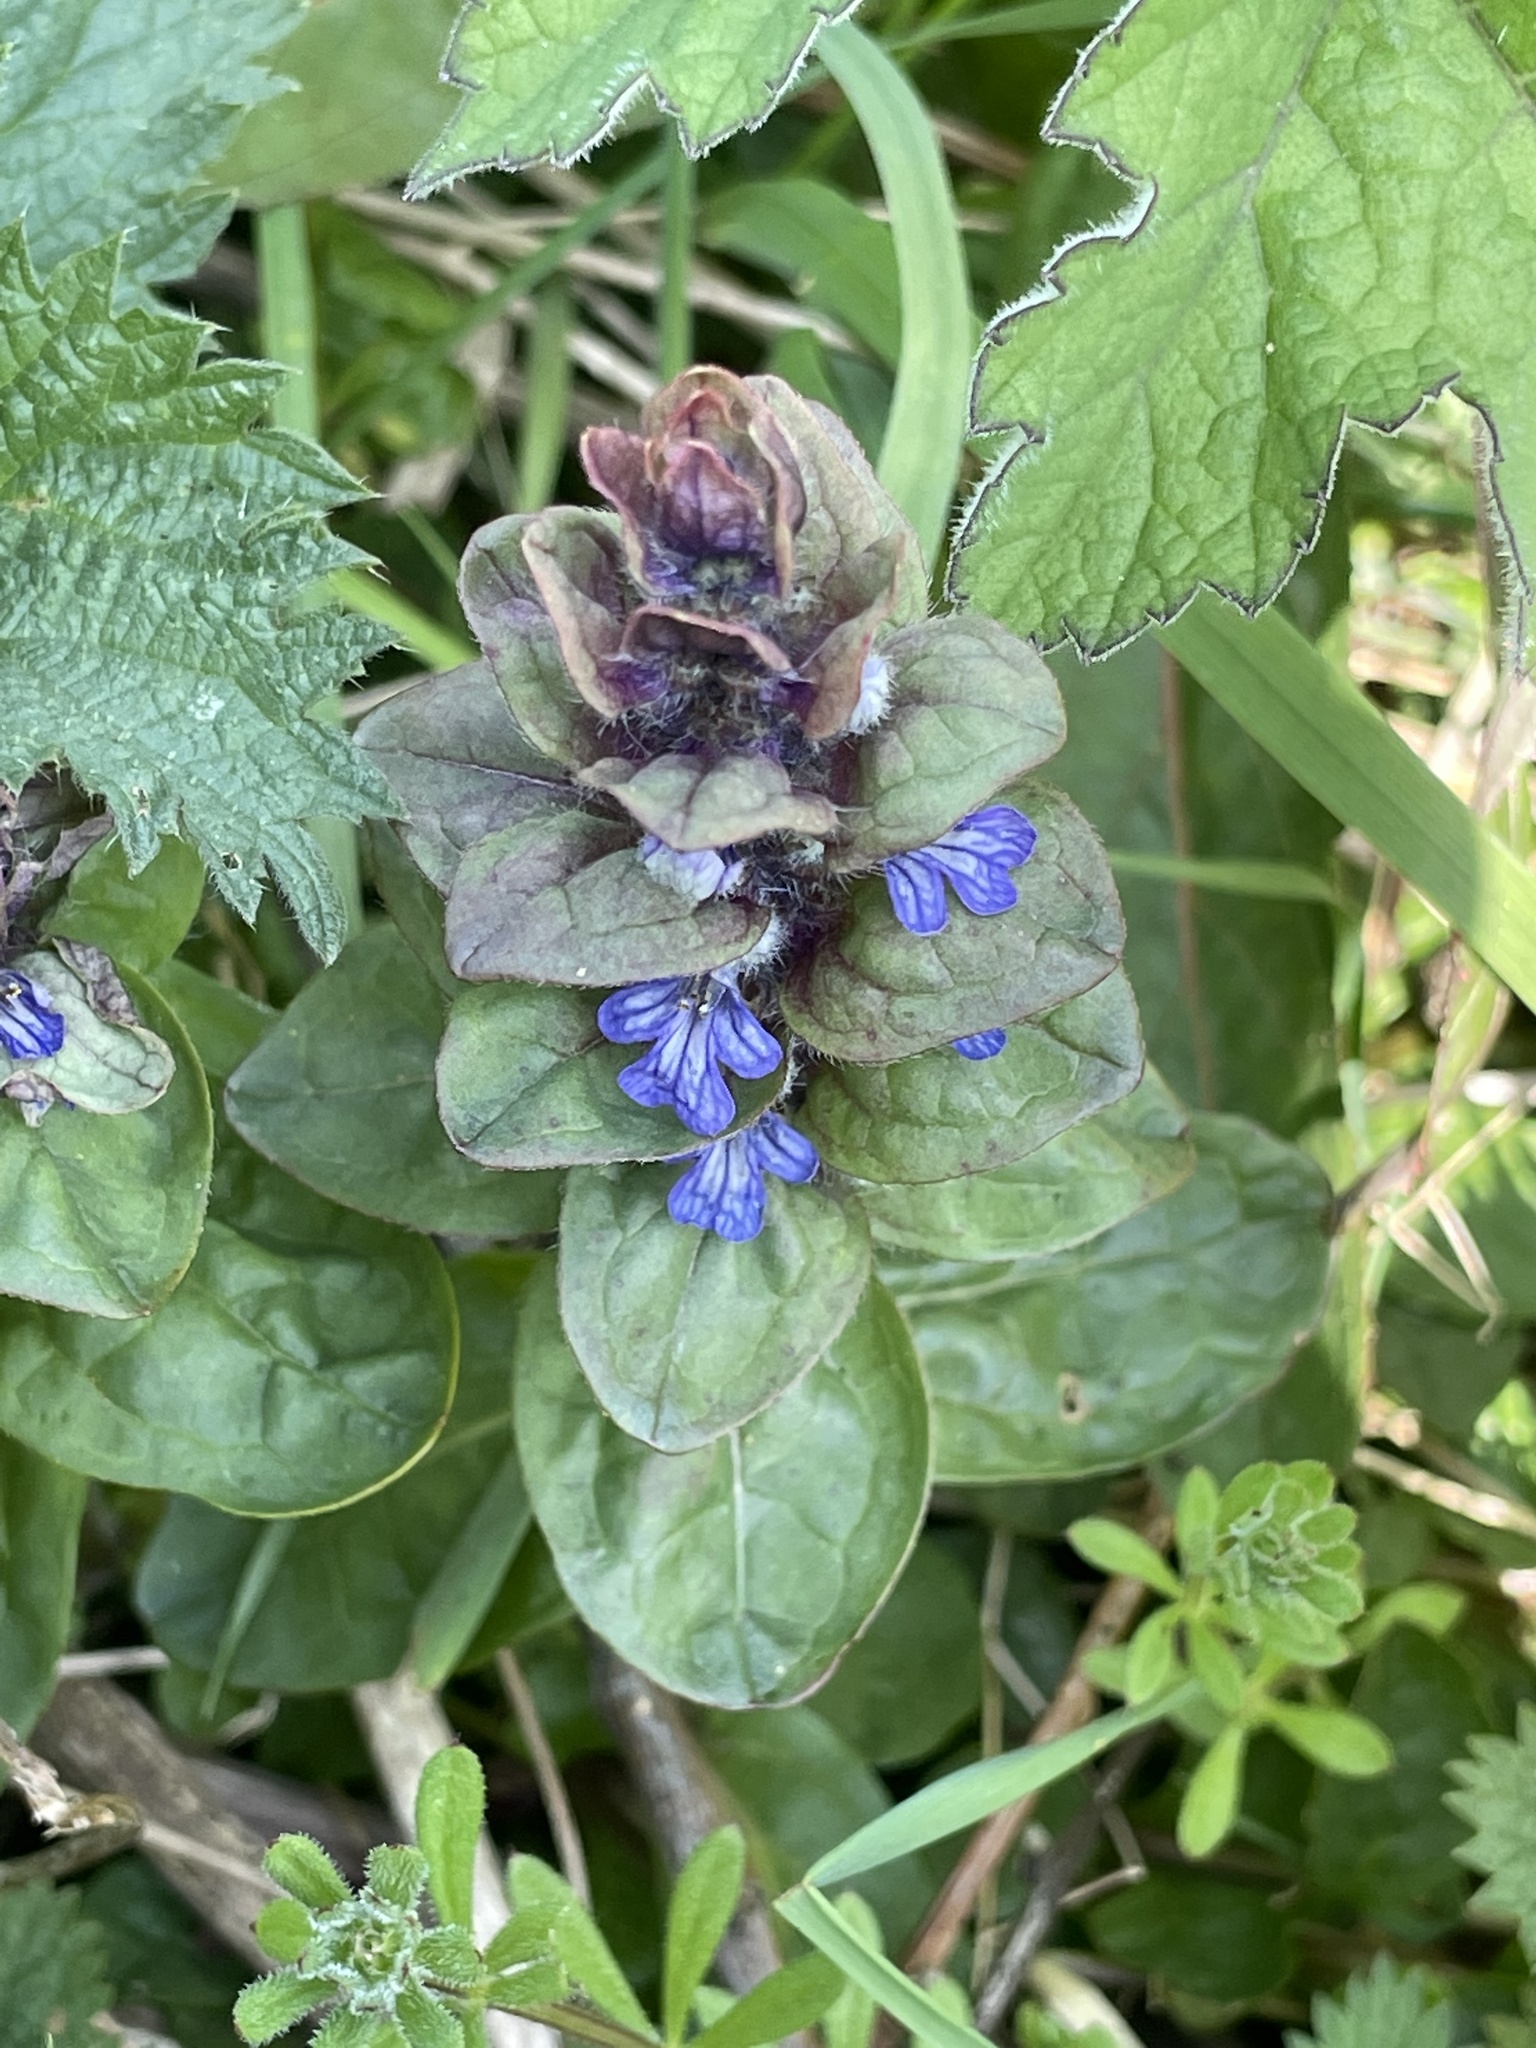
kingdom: Plantae
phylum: Tracheophyta
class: Magnoliopsida
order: Lamiales
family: Lamiaceae
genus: Ajuga
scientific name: Ajuga reptans
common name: Bugle
